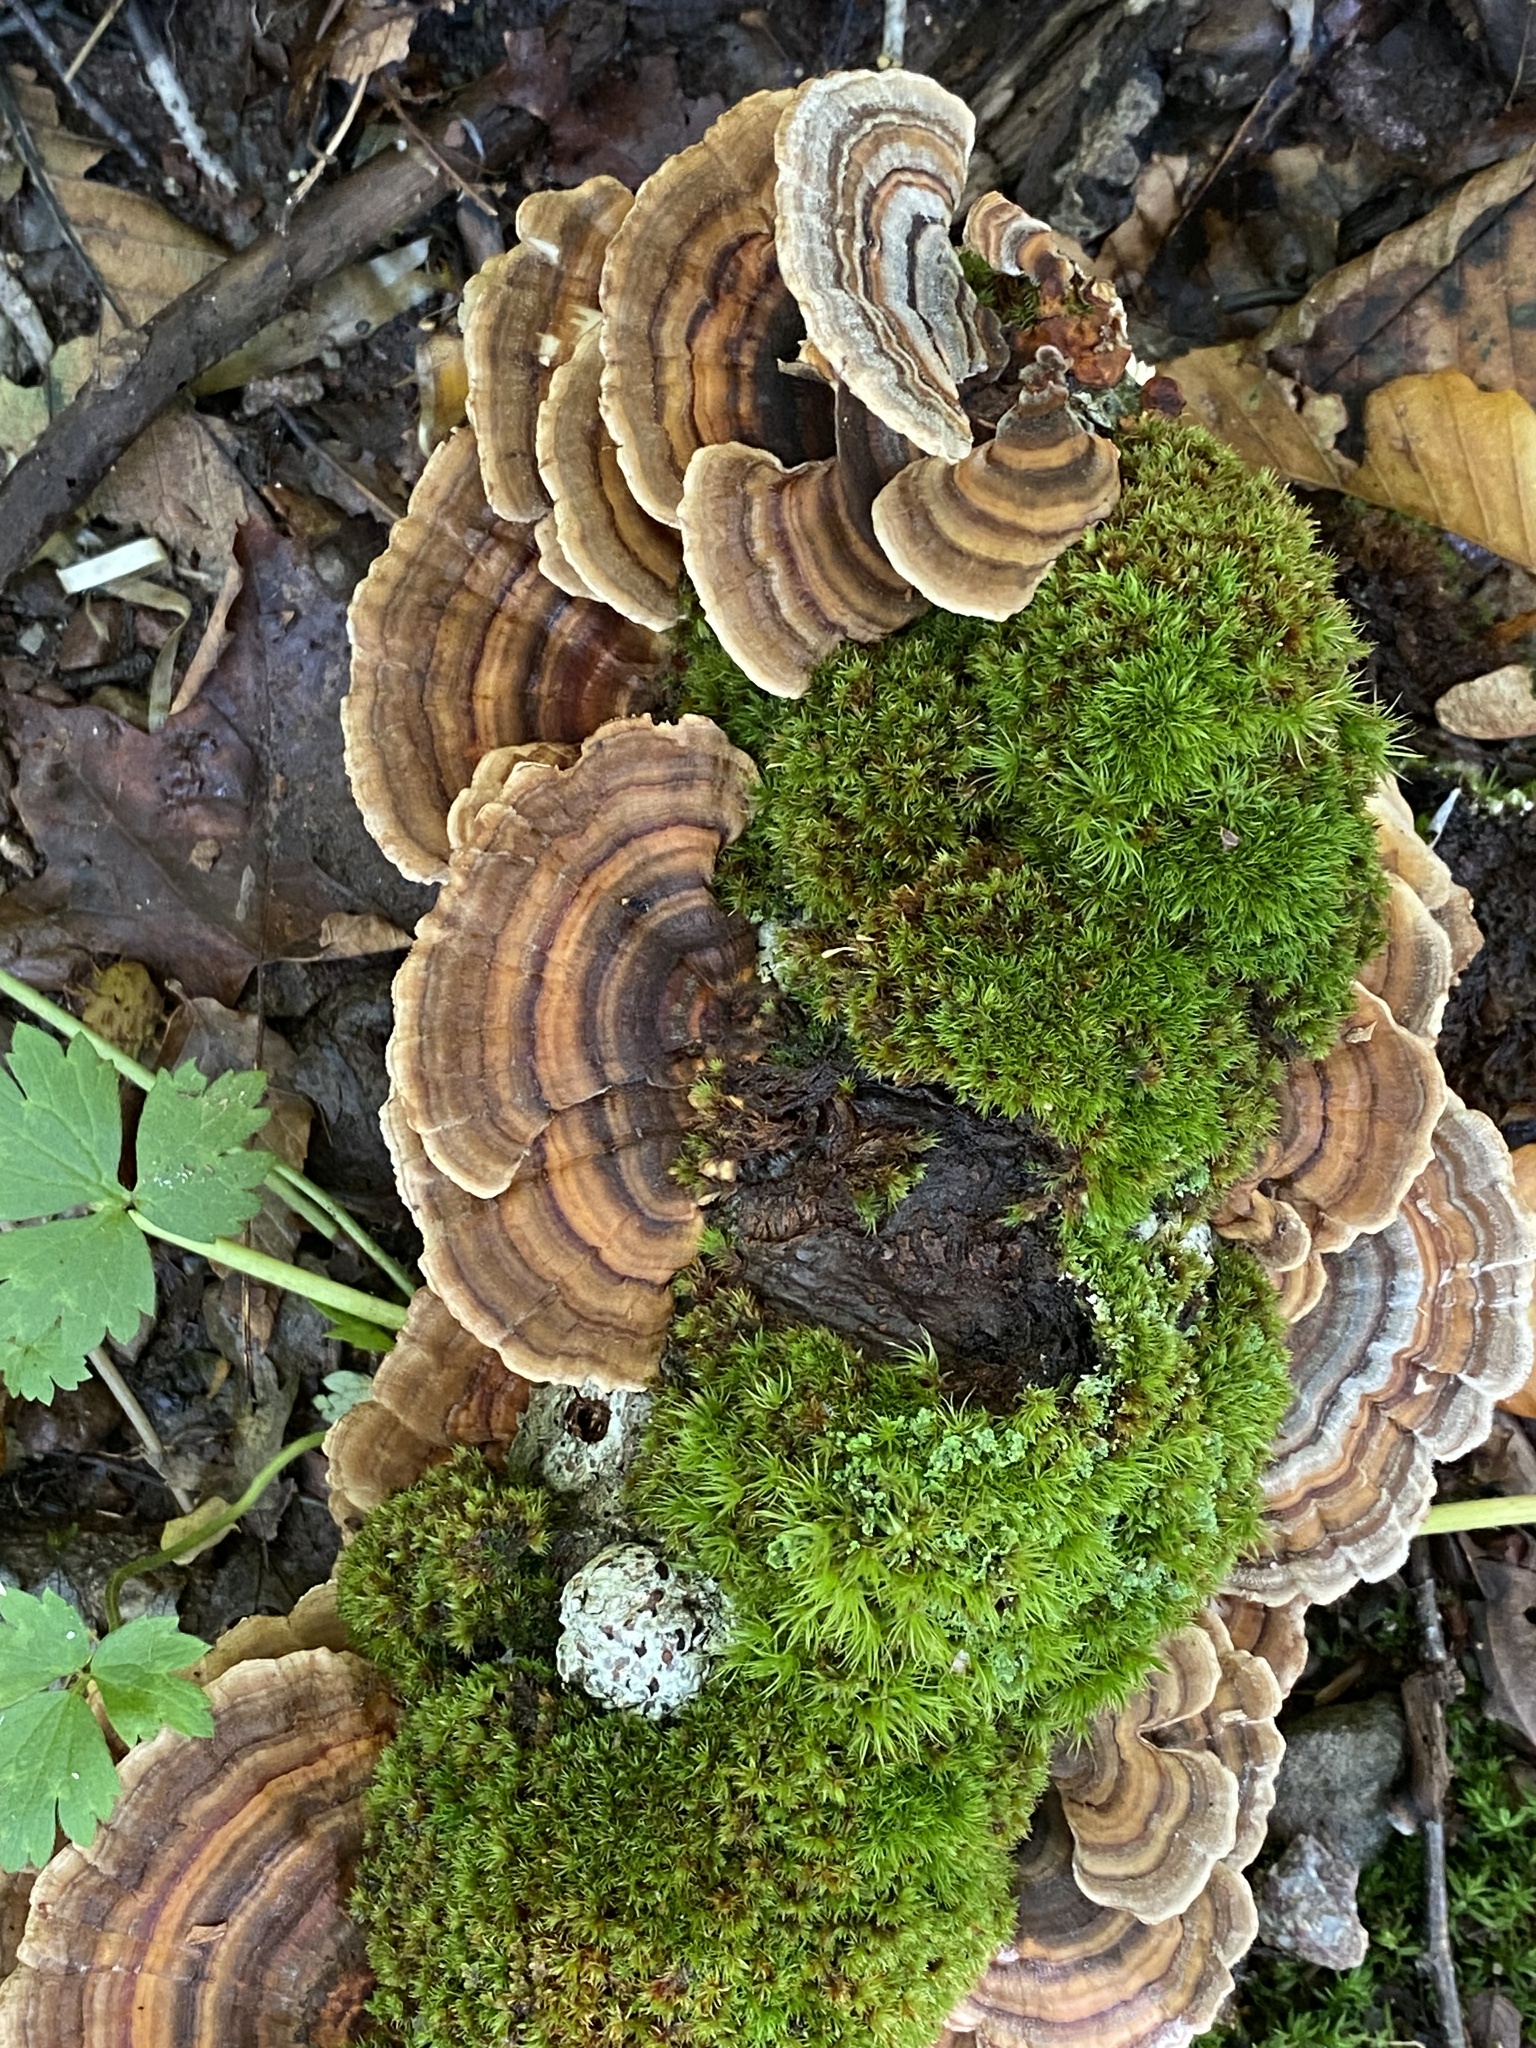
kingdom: Fungi
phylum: Basidiomycota
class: Agaricomycetes
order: Polyporales
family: Polyporaceae
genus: Trametes
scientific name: Trametes versicolor
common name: Turkeytail
